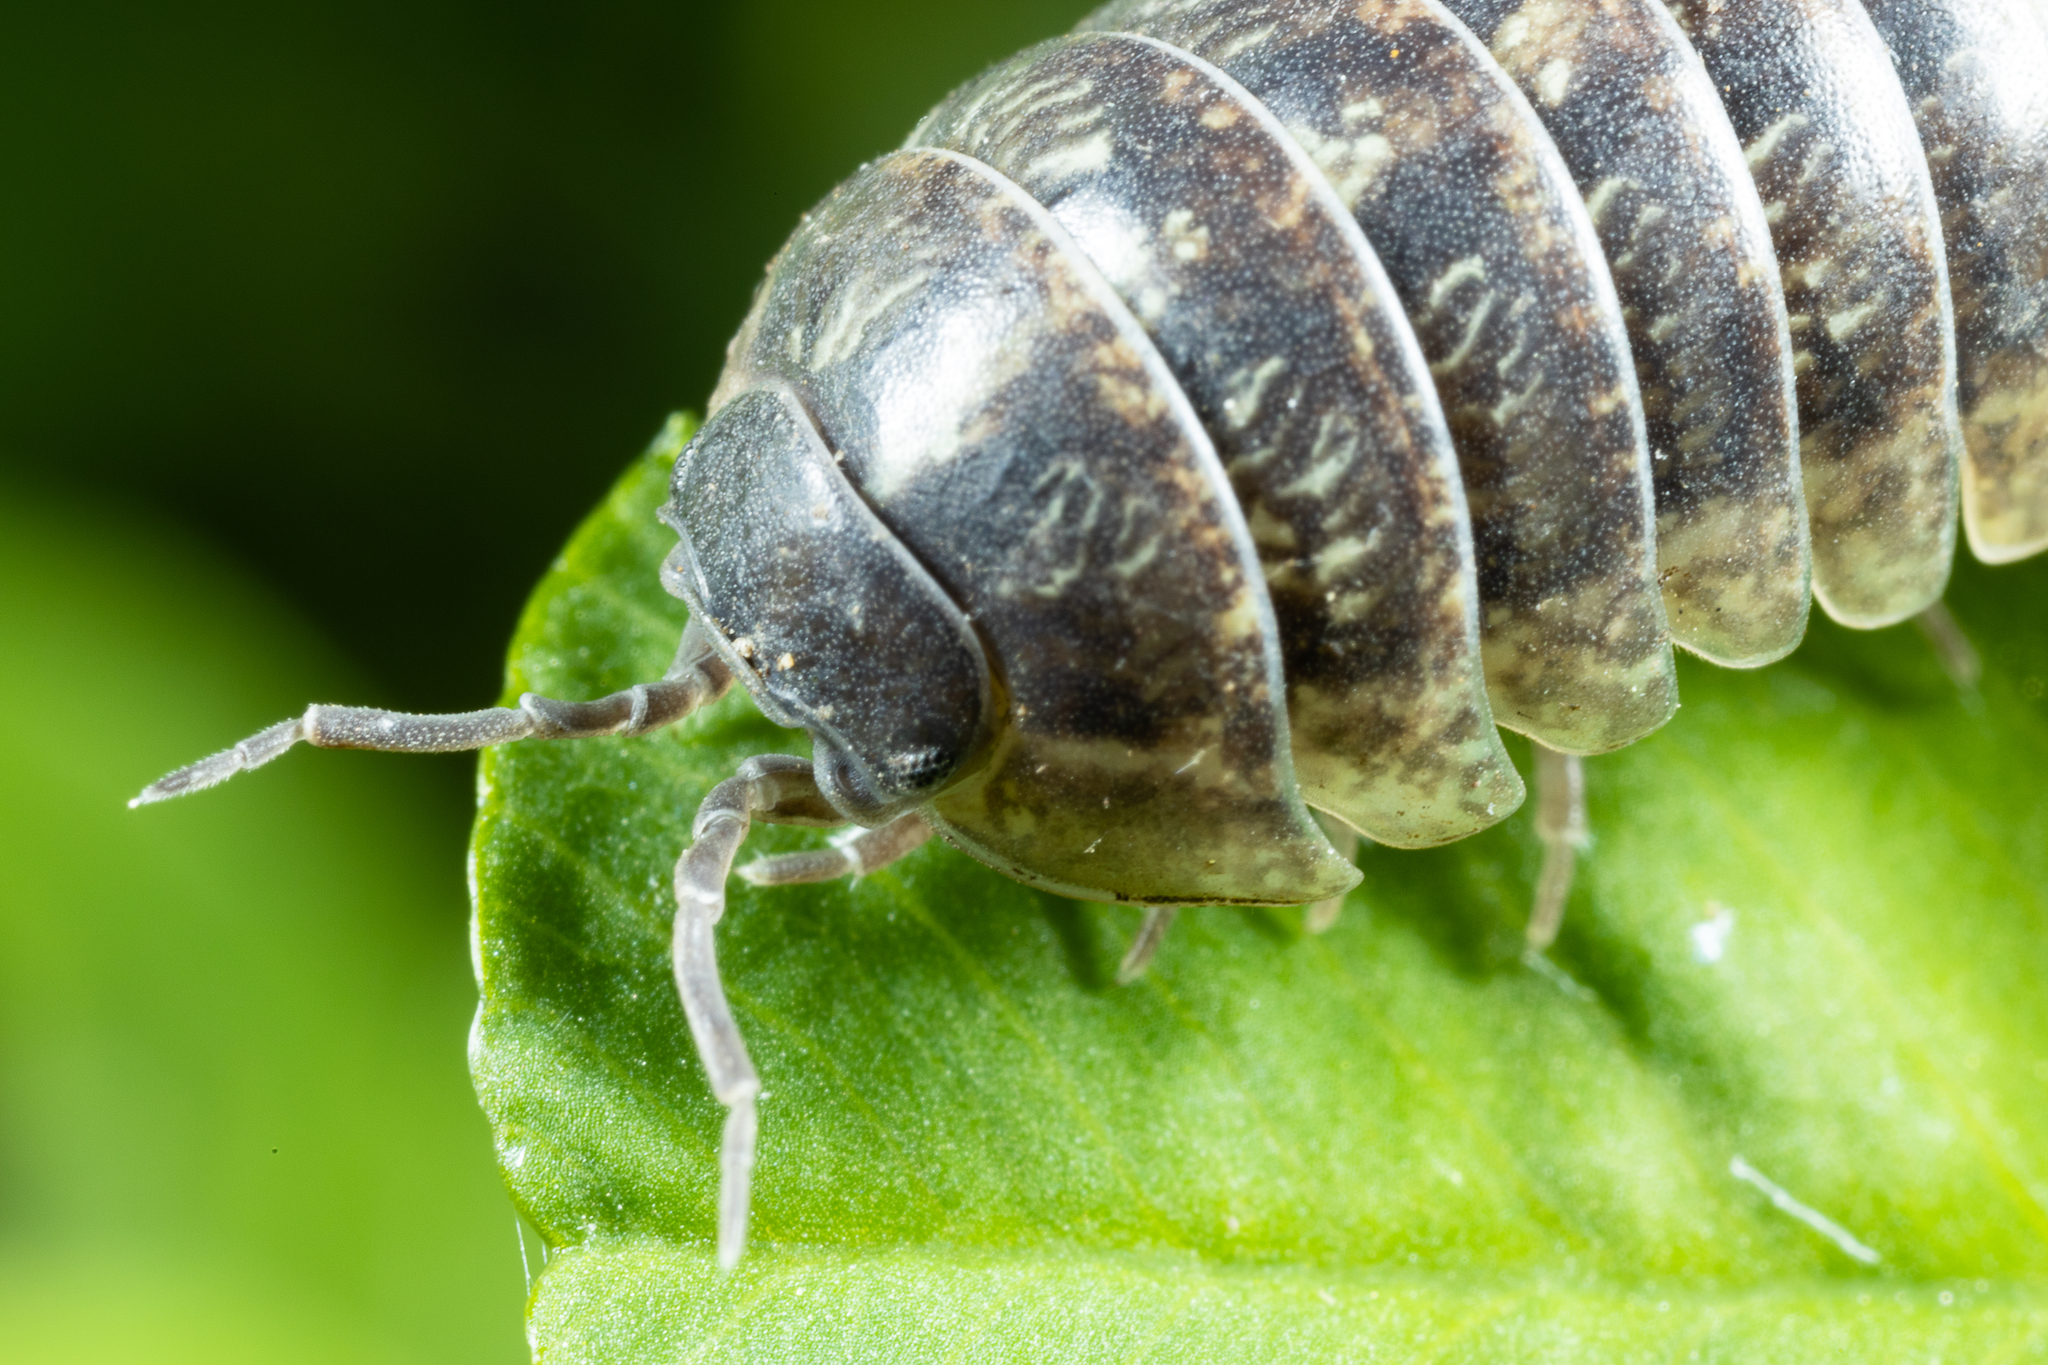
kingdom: Animalia
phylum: Arthropoda
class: Malacostraca
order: Isopoda
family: Armadillidiidae
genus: Armadillidium
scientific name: Armadillidium vulgare
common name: Common pill woodlouse
